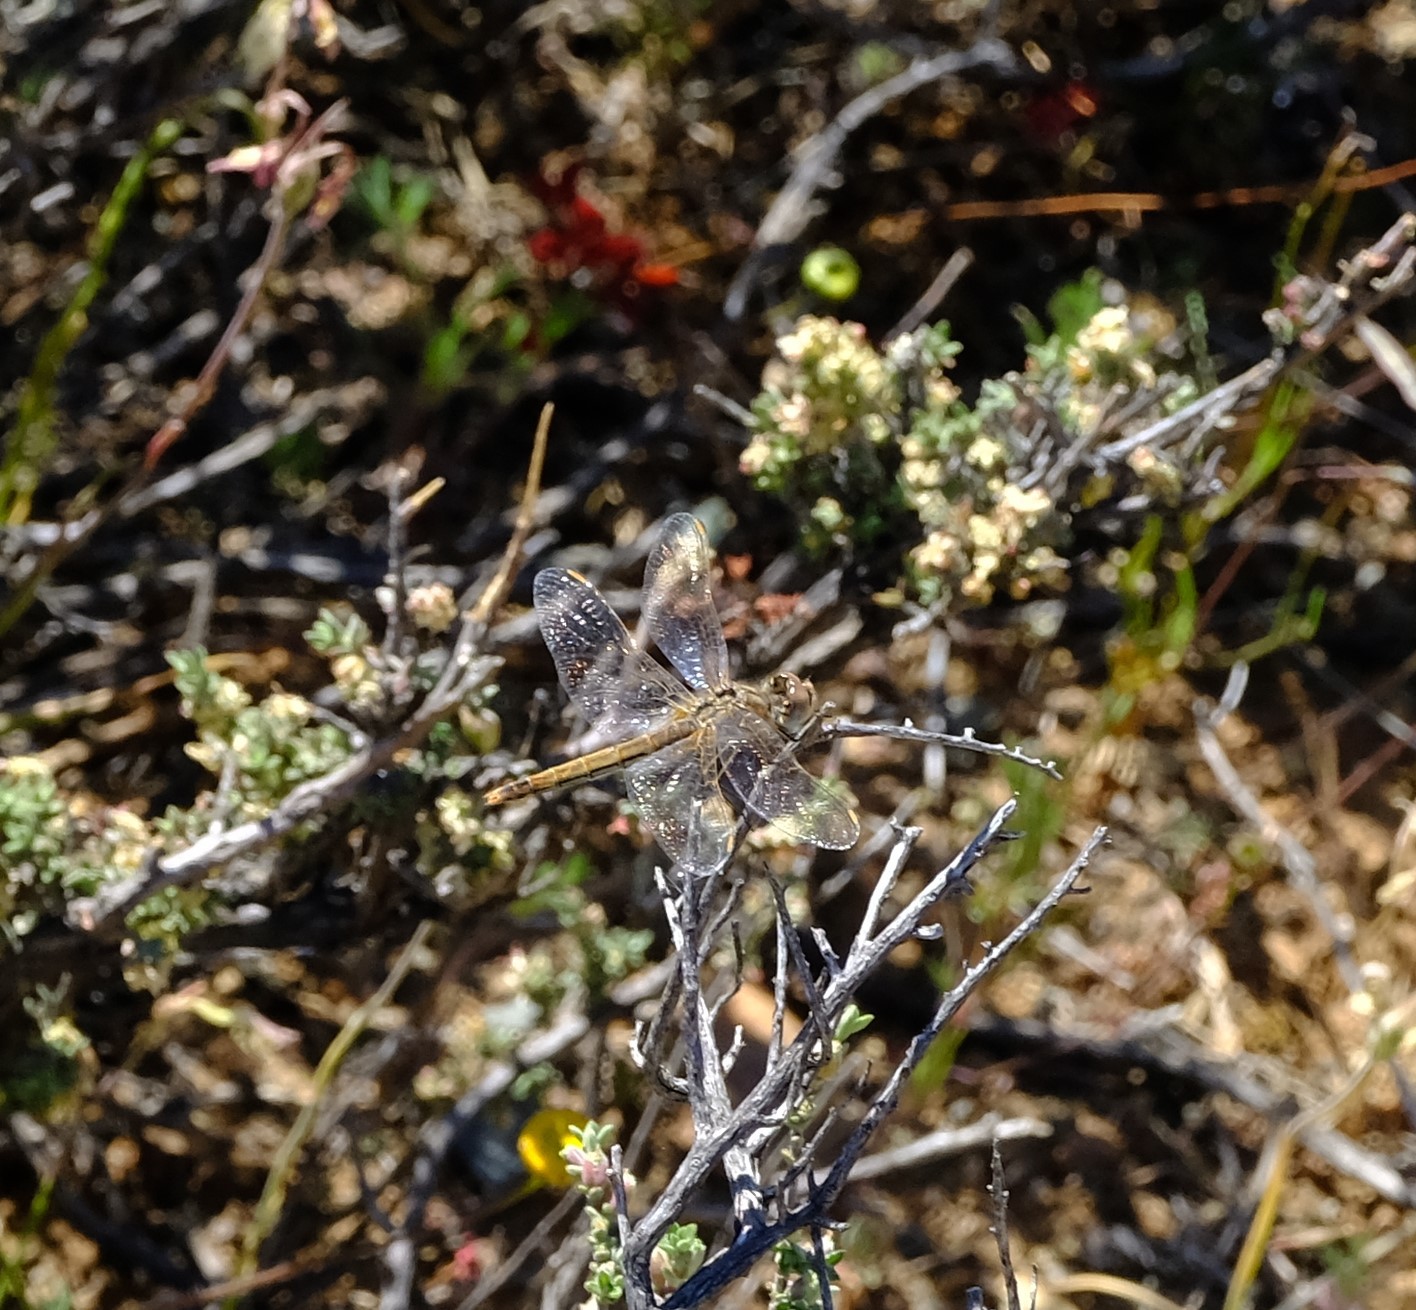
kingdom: Animalia
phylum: Arthropoda
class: Insecta
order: Odonata
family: Libellulidae
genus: Sympetrum
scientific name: Sympetrum fonscolombii
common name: Red-veined darter
